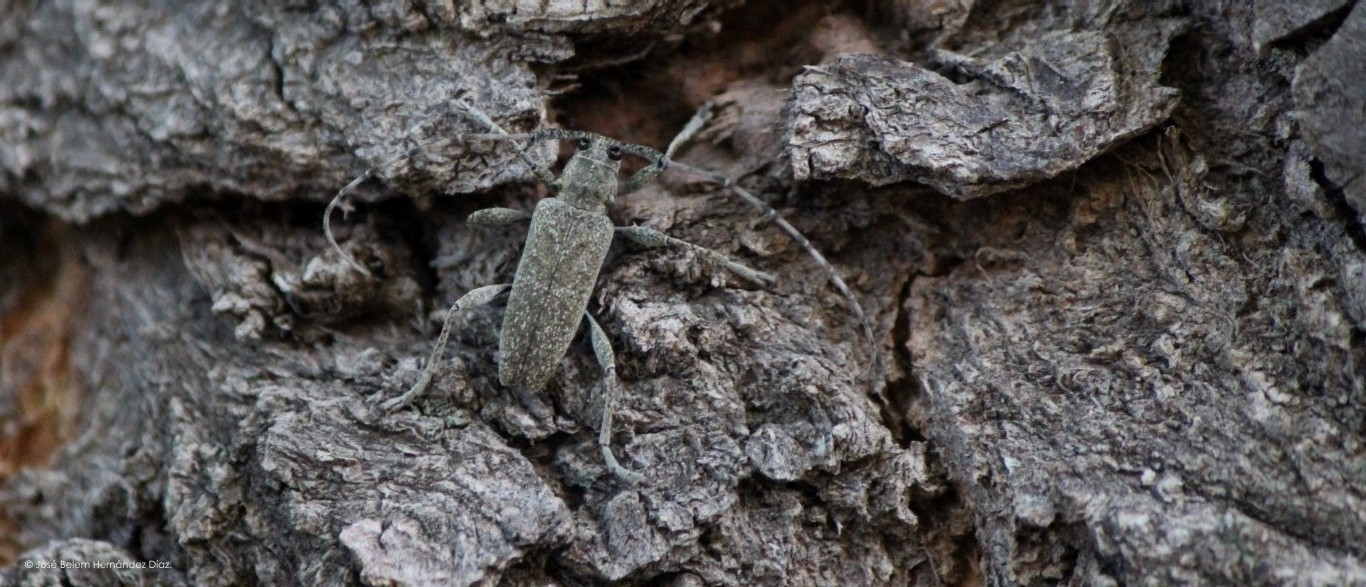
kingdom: Animalia
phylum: Arthropoda
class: Insecta
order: Coleoptera
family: Cerambycidae
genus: Canidia
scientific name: Canidia mexicana
